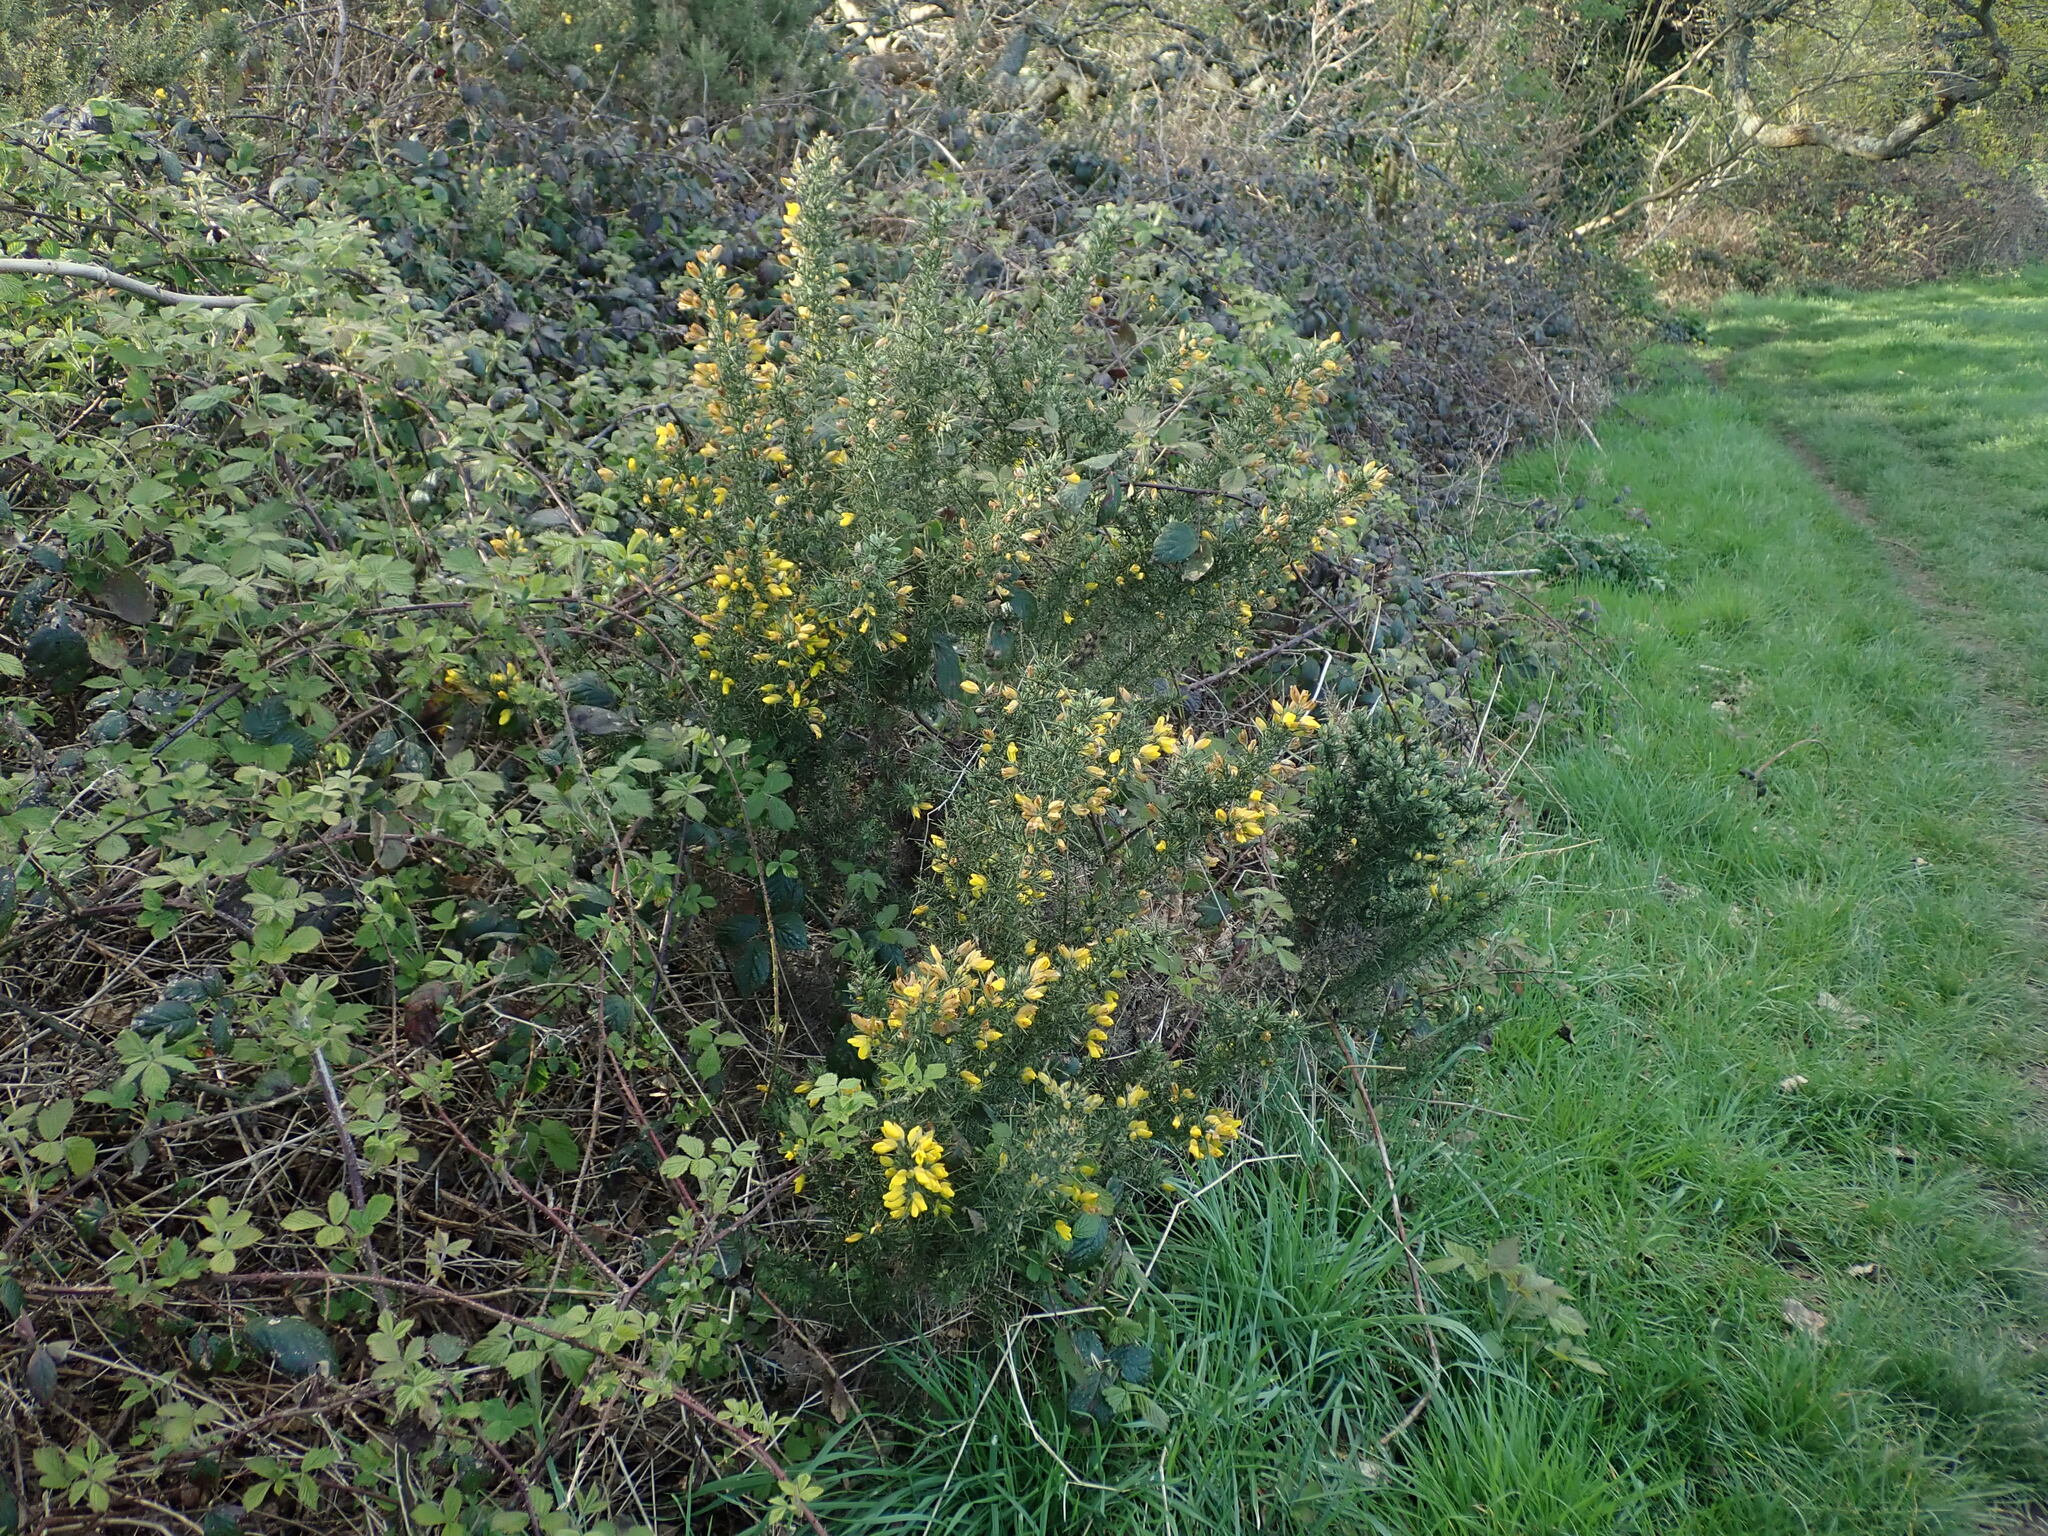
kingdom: Plantae
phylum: Tracheophyta
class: Magnoliopsida
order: Fabales
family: Fabaceae
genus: Ulex
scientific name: Ulex europaeus
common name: Common gorse
